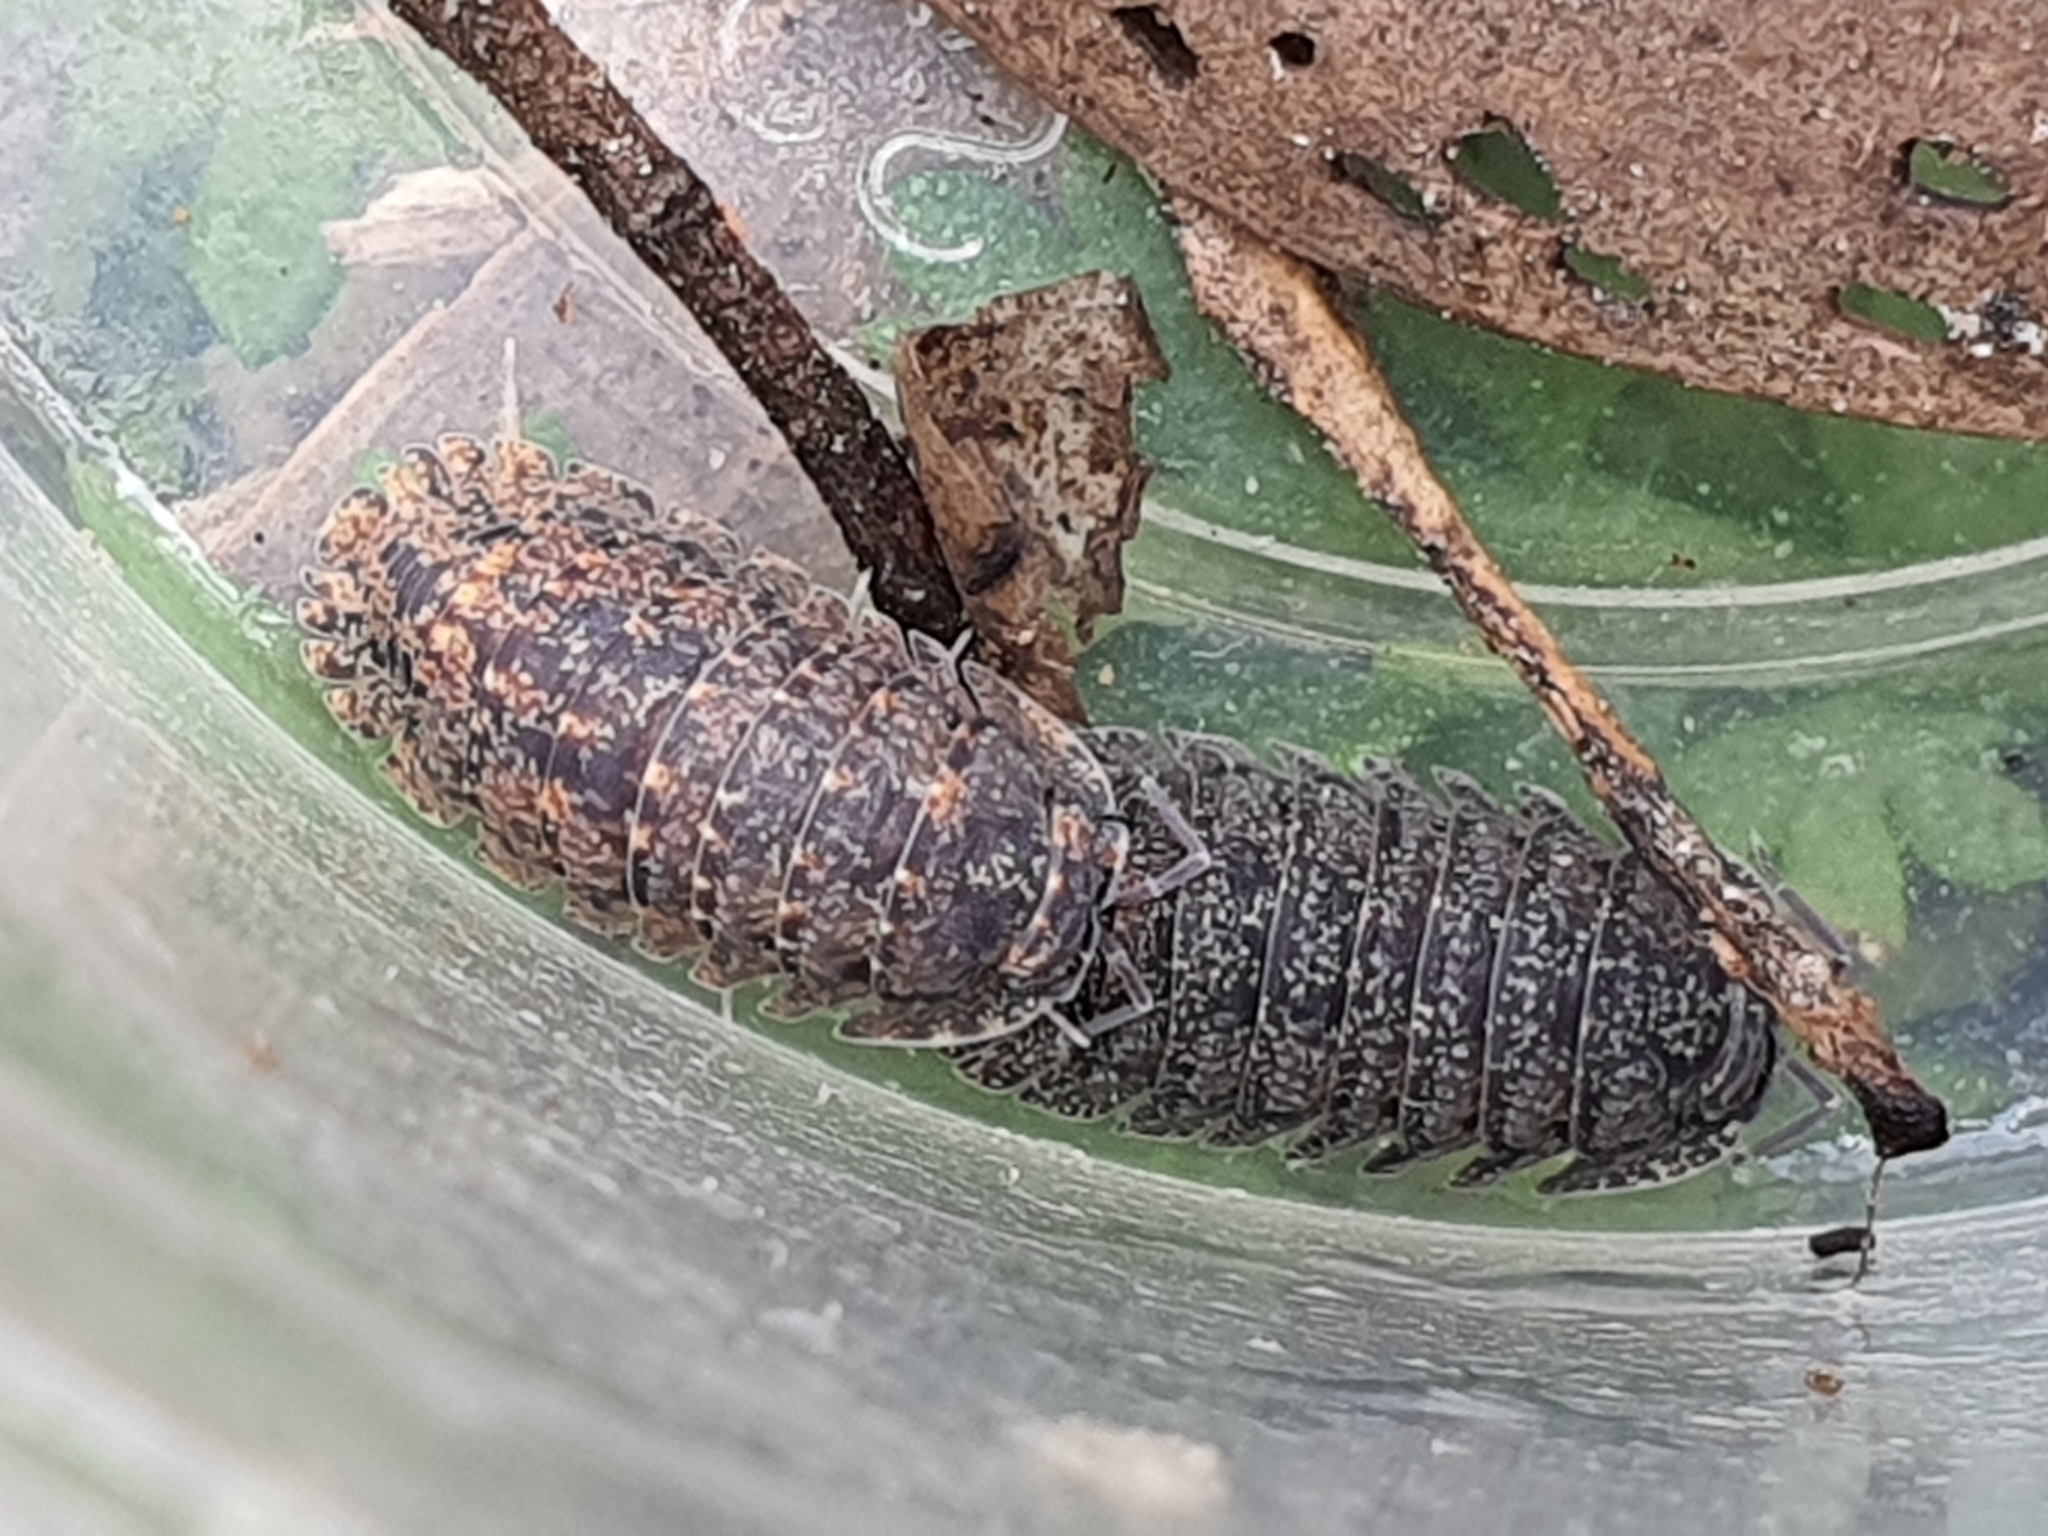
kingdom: Animalia
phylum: Arthropoda
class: Malacostraca
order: Isopoda
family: Armadillidae
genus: Merulana
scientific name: Merulana helmsiana
